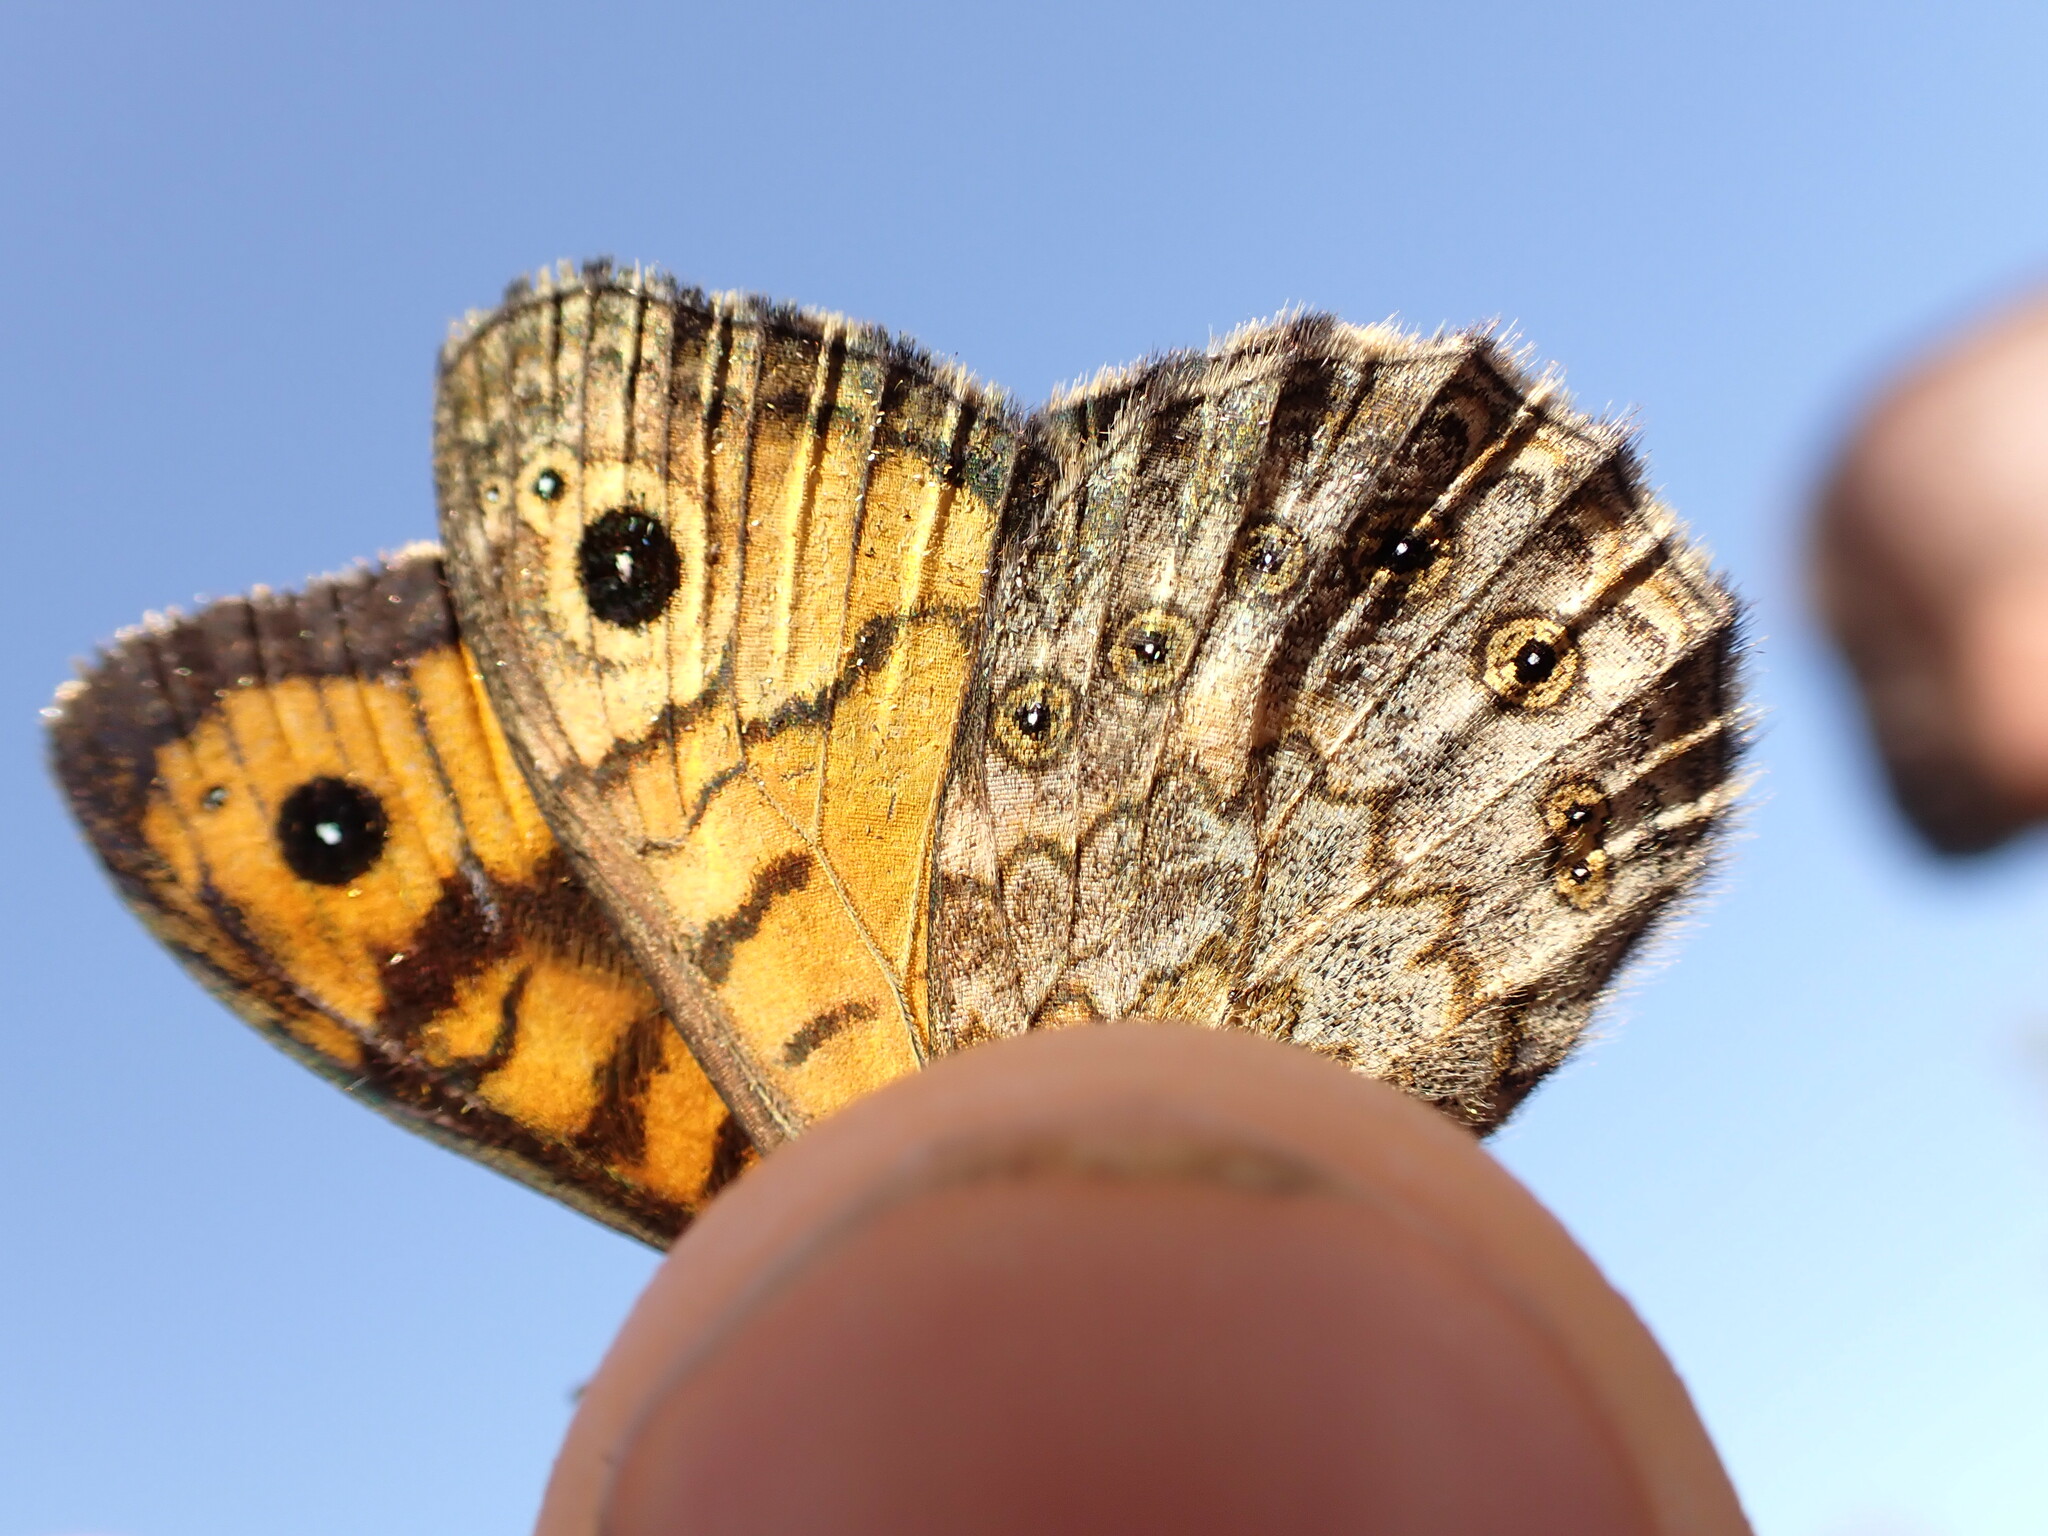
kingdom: Animalia
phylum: Arthropoda
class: Insecta
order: Lepidoptera
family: Nymphalidae
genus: Pararge
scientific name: Pararge Lasiommata megera
